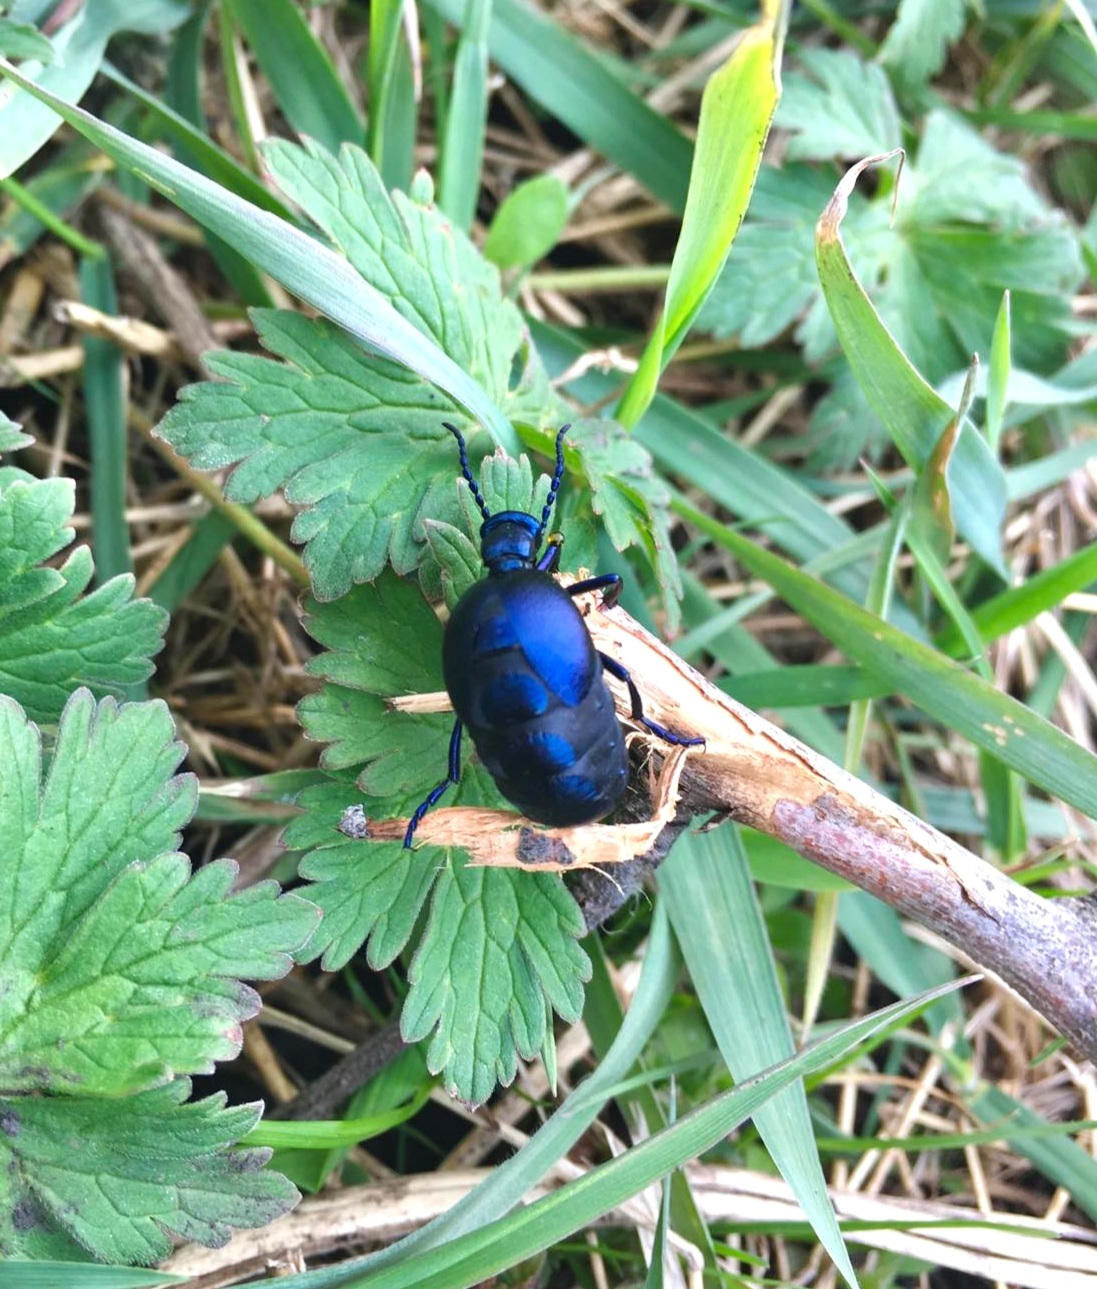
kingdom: Animalia
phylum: Arthropoda
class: Insecta
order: Coleoptera
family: Meloidae
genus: Meloe
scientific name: Meloe violaceus
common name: Violet oil-beetle
